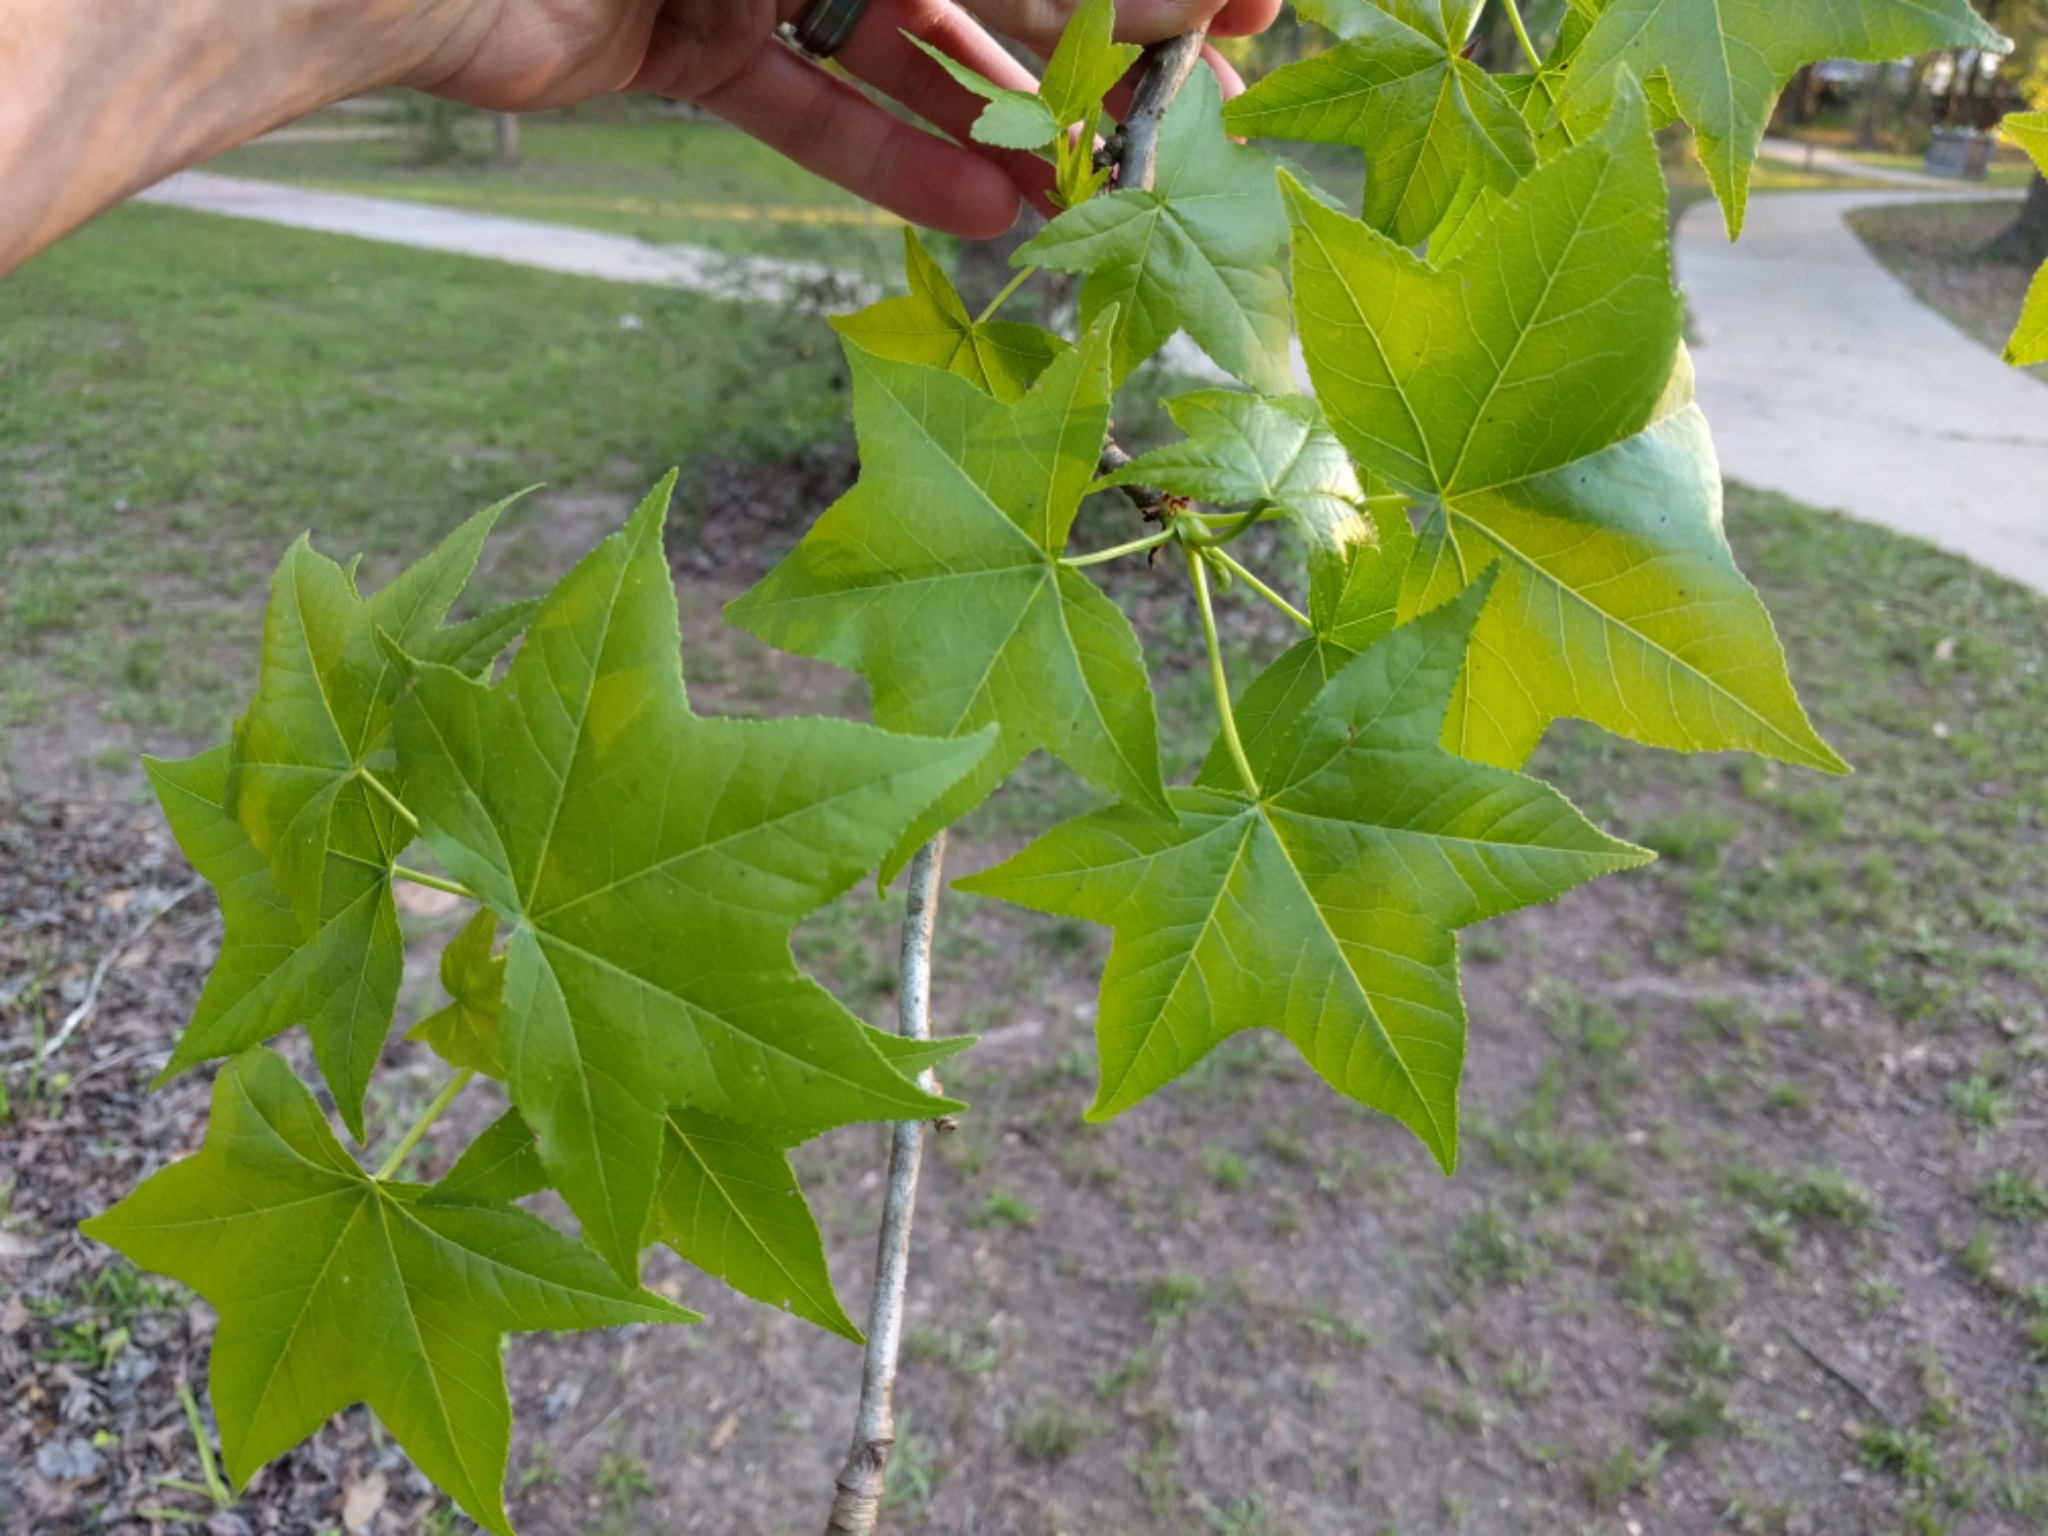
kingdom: Plantae
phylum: Tracheophyta
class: Magnoliopsida
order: Saxifragales
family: Altingiaceae
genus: Liquidambar
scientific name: Liquidambar styraciflua
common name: Sweet gum
